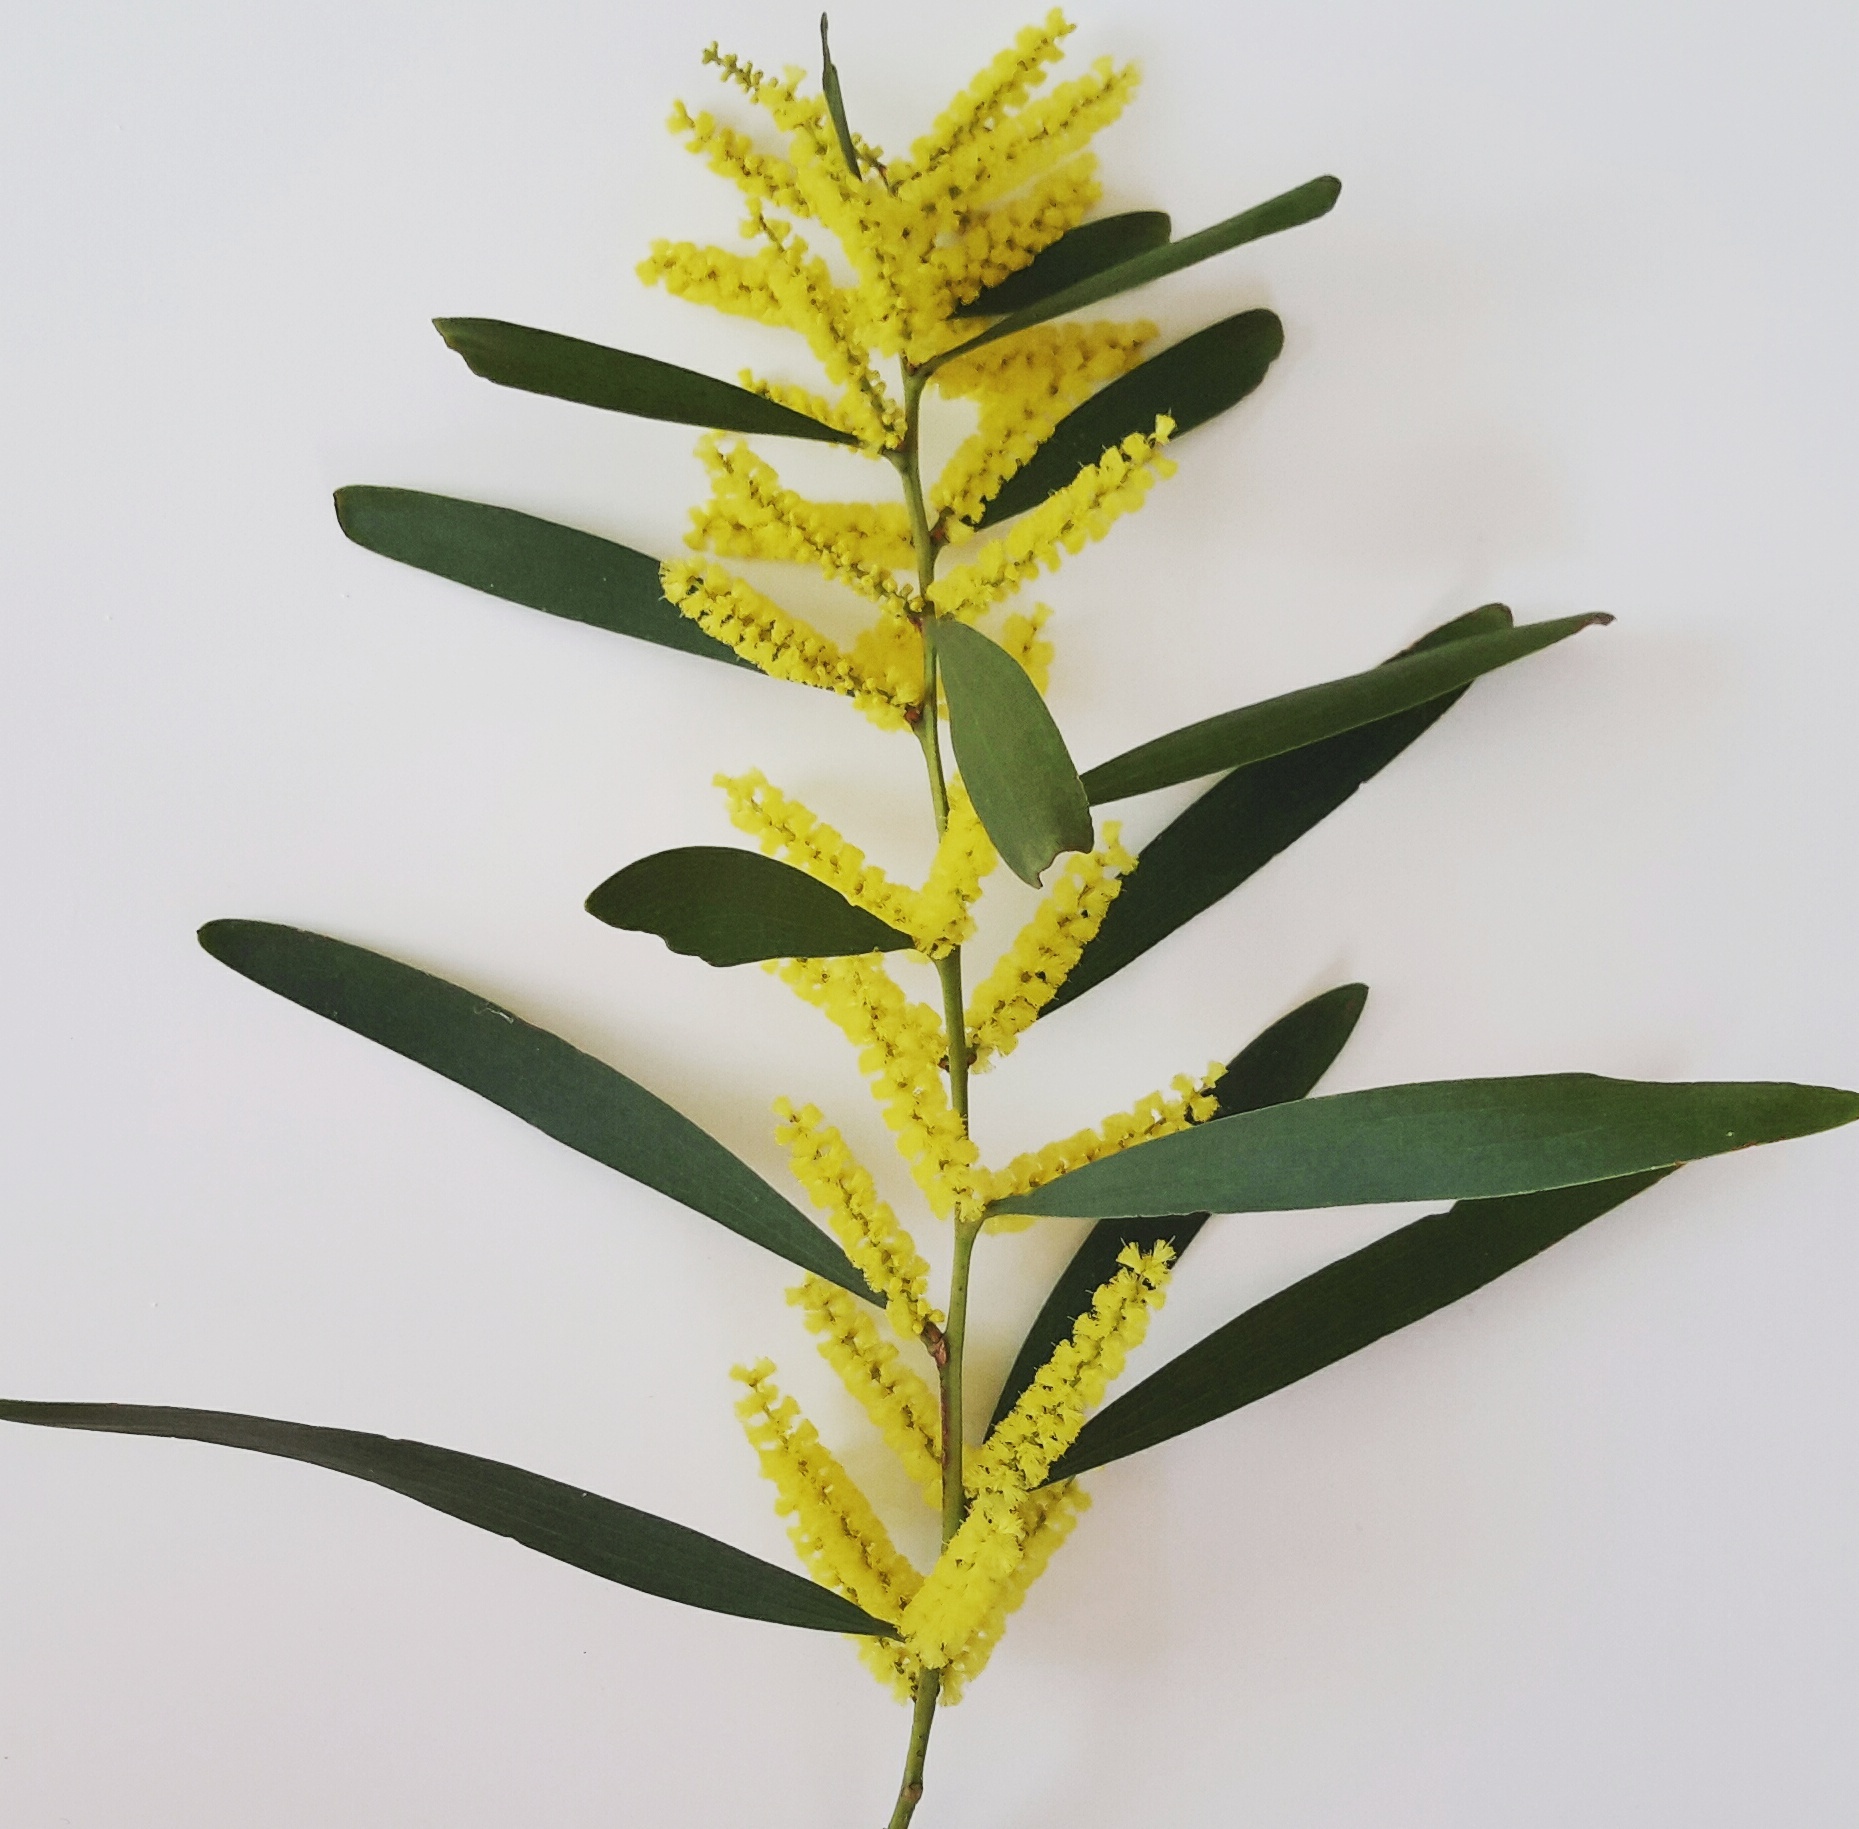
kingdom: Plantae
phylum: Tracheophyta
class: Magnoliopsida
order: Fabales
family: Fabaceae
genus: Acacia
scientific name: Acacia longifolia
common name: Sydney golden wattle
